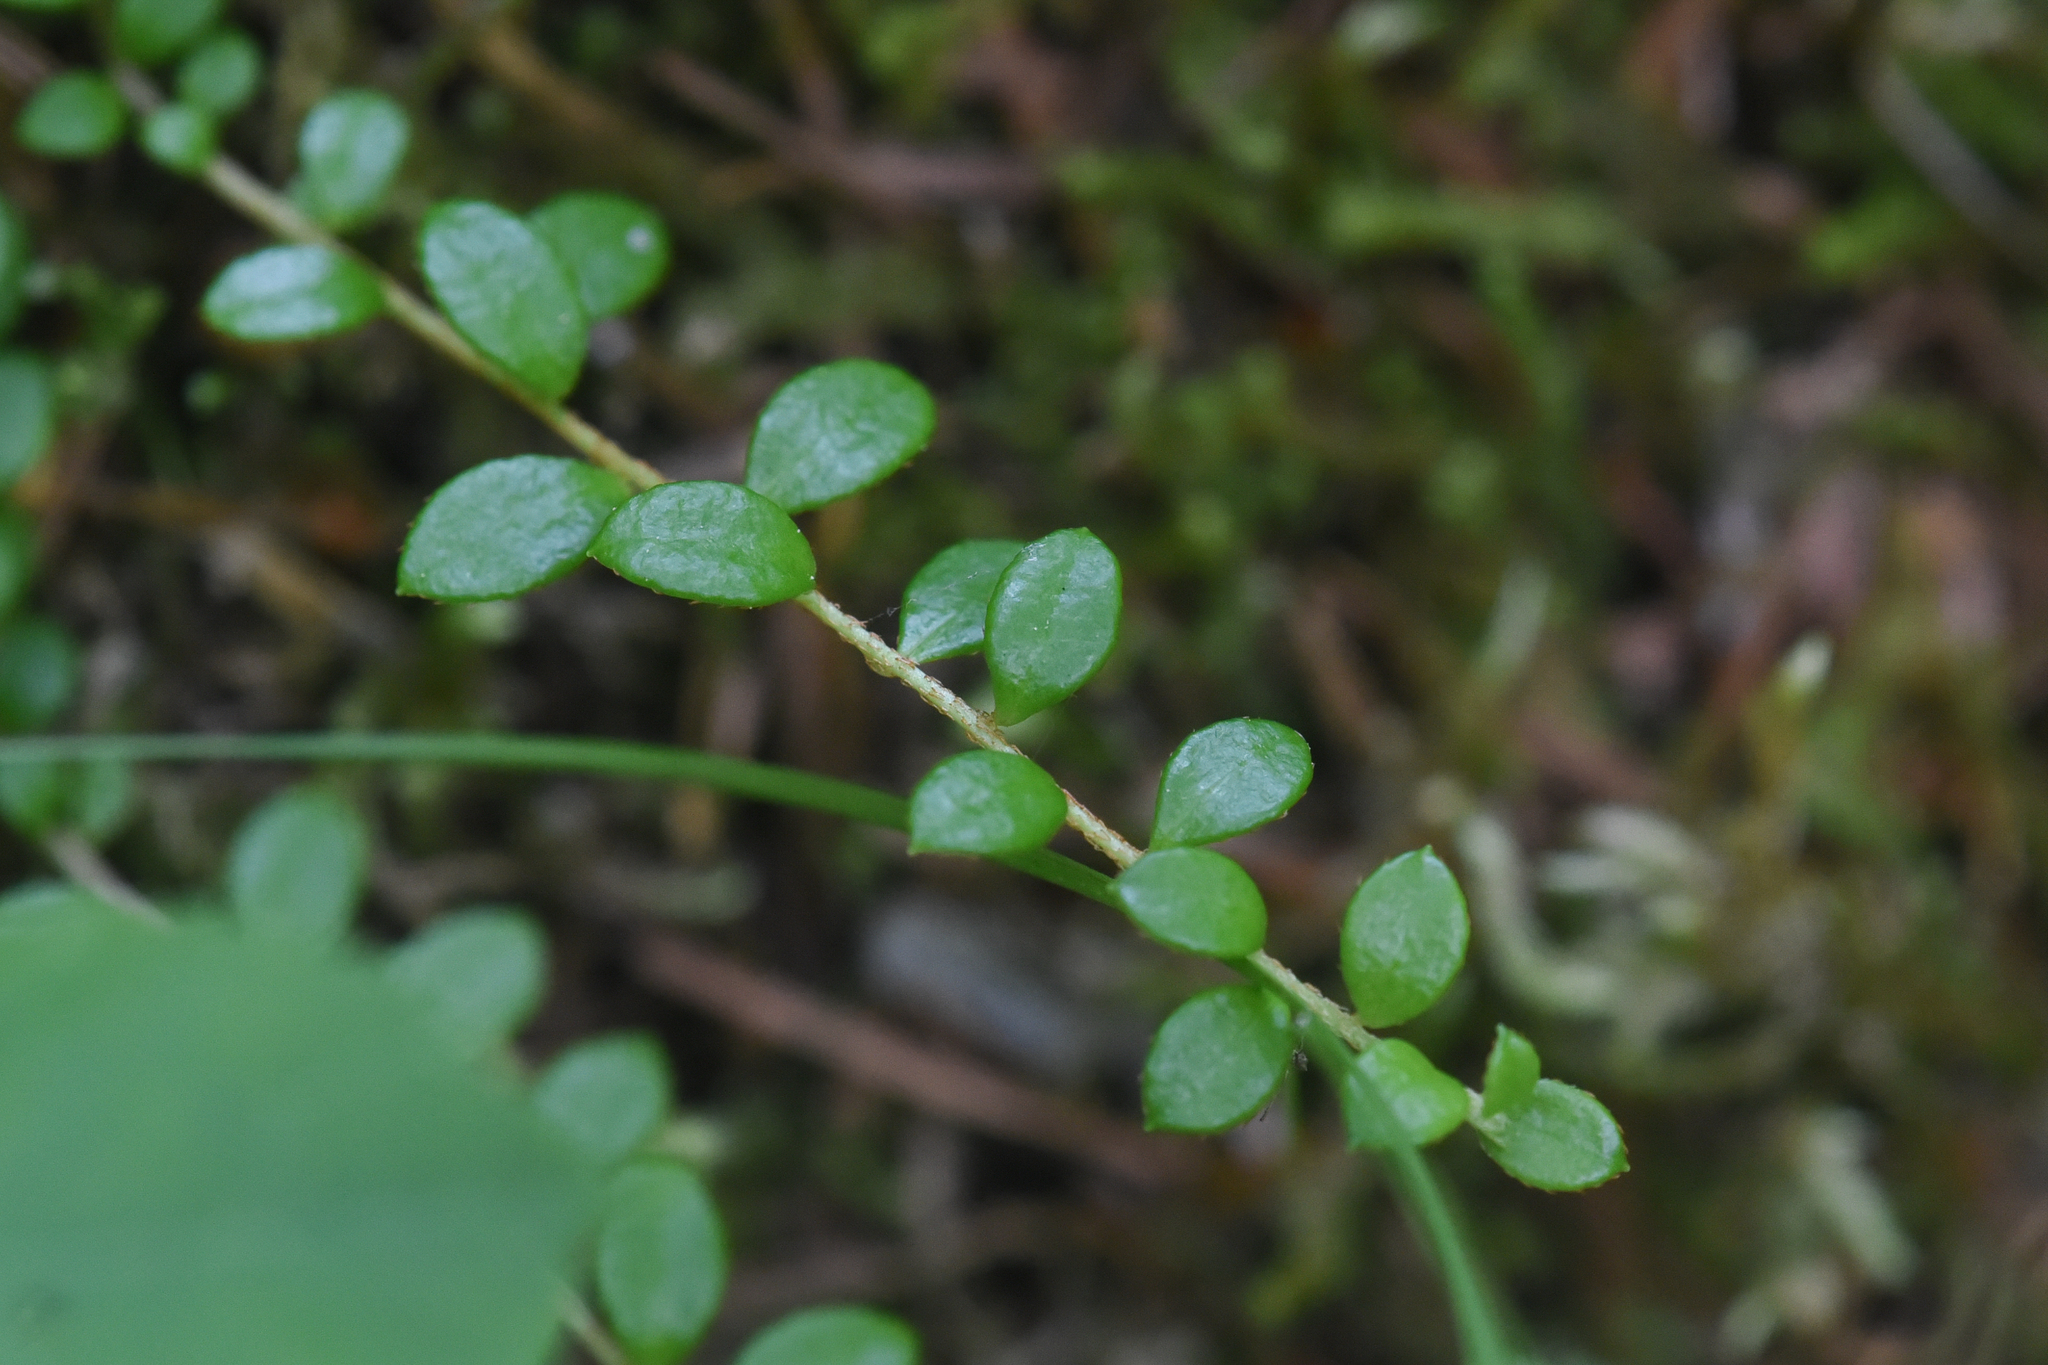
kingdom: Plantae
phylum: Tracheophyta
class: Magnoliopsida
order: Ericales
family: Ericaceae
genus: Gaultheria
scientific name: Gaultheria hispidula
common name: Cancer wintergreen
